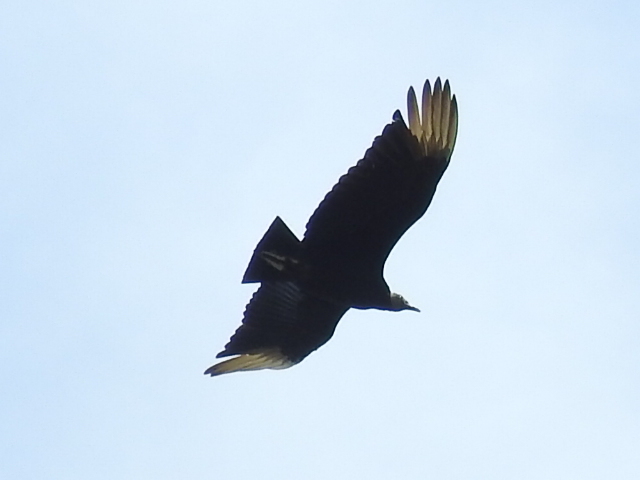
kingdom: Animalia
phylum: Chordata
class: Aves
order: Accipitriformes
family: Cathartidae
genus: Coragyps
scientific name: Coragyps atratus
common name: Black vulture
